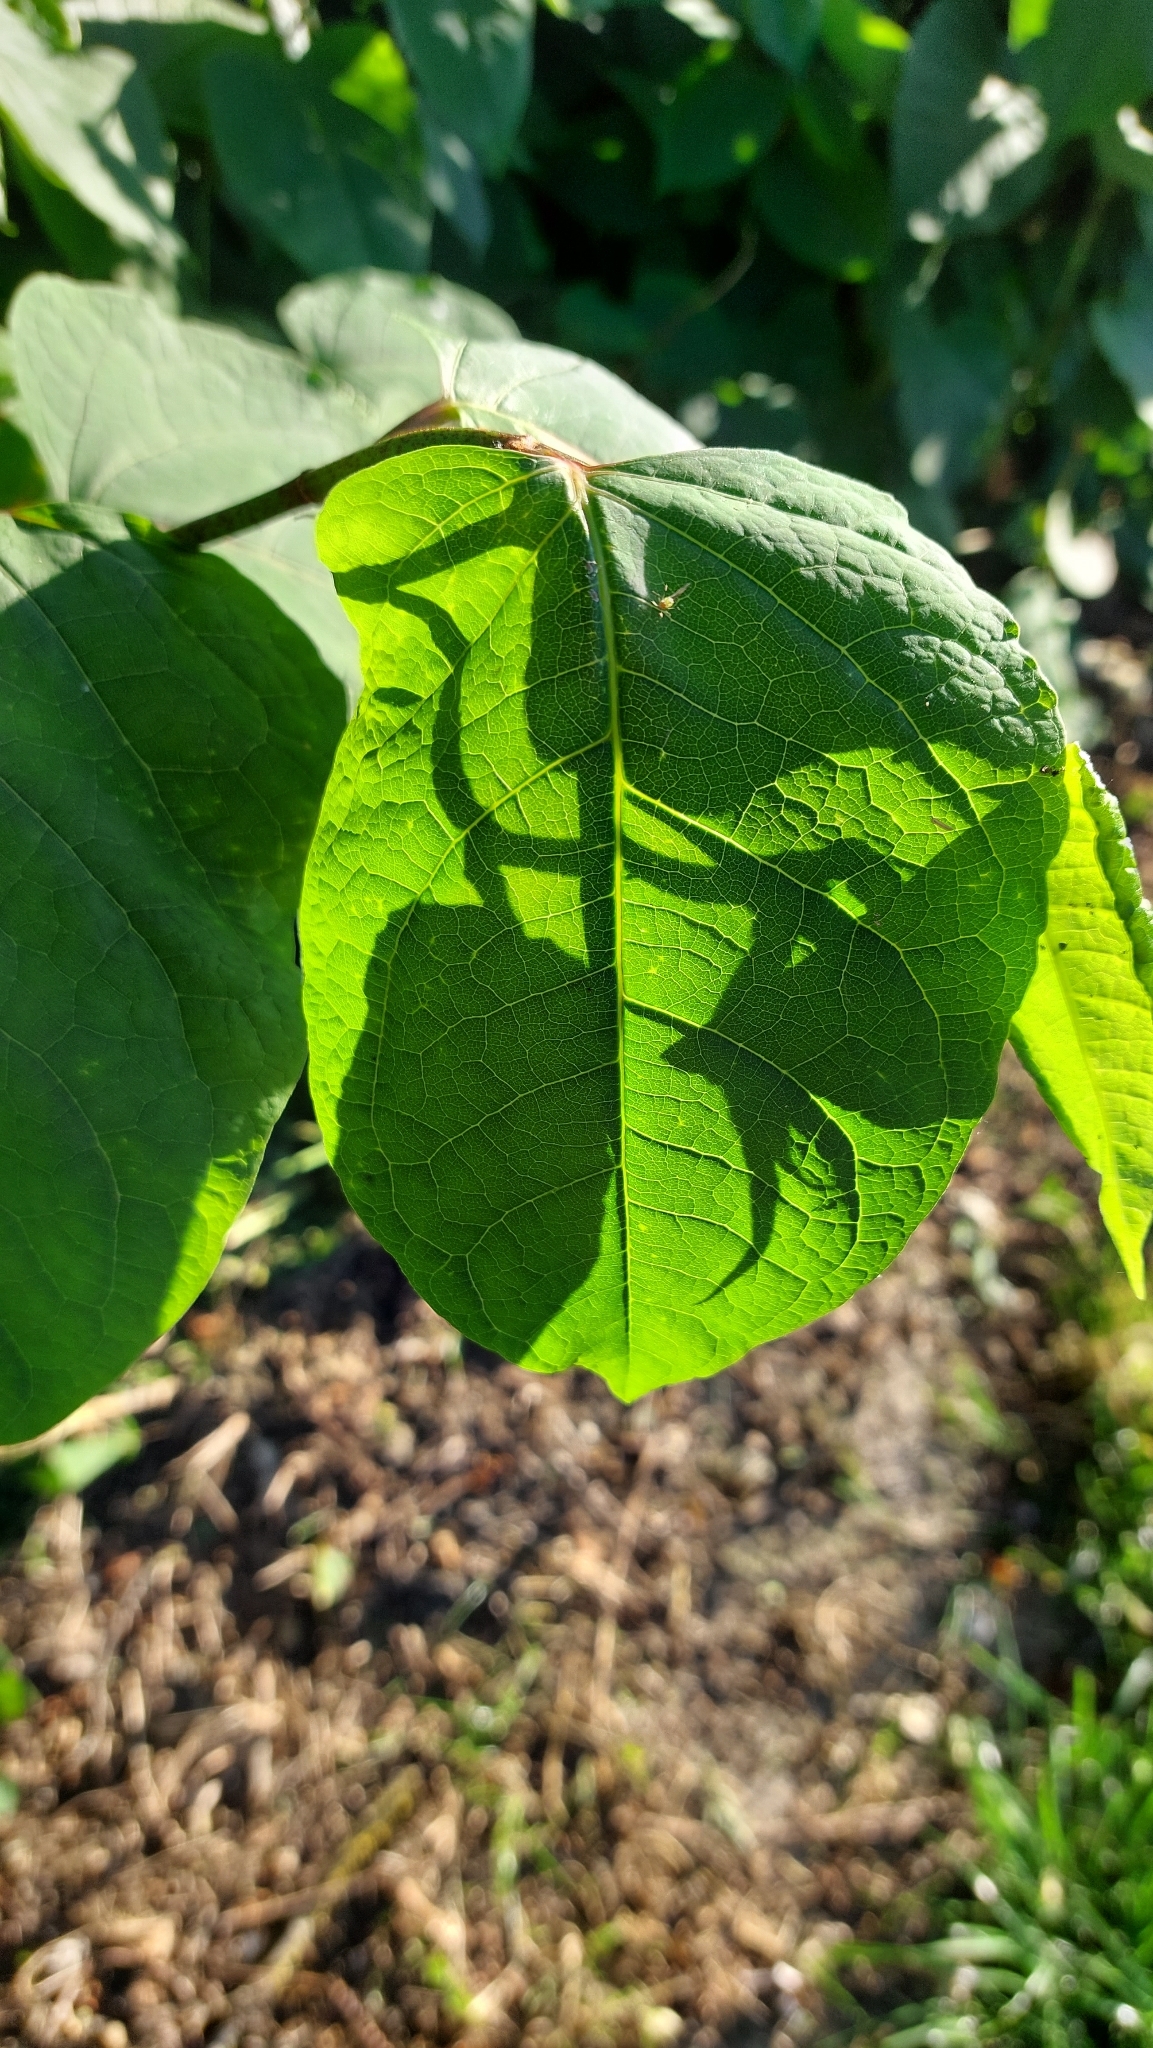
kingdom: Plantae
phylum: Tracheophyta
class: Magnoliopsida
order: Caryophyllales
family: Polygonaceae
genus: Reynoutria
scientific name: Reynoutria
